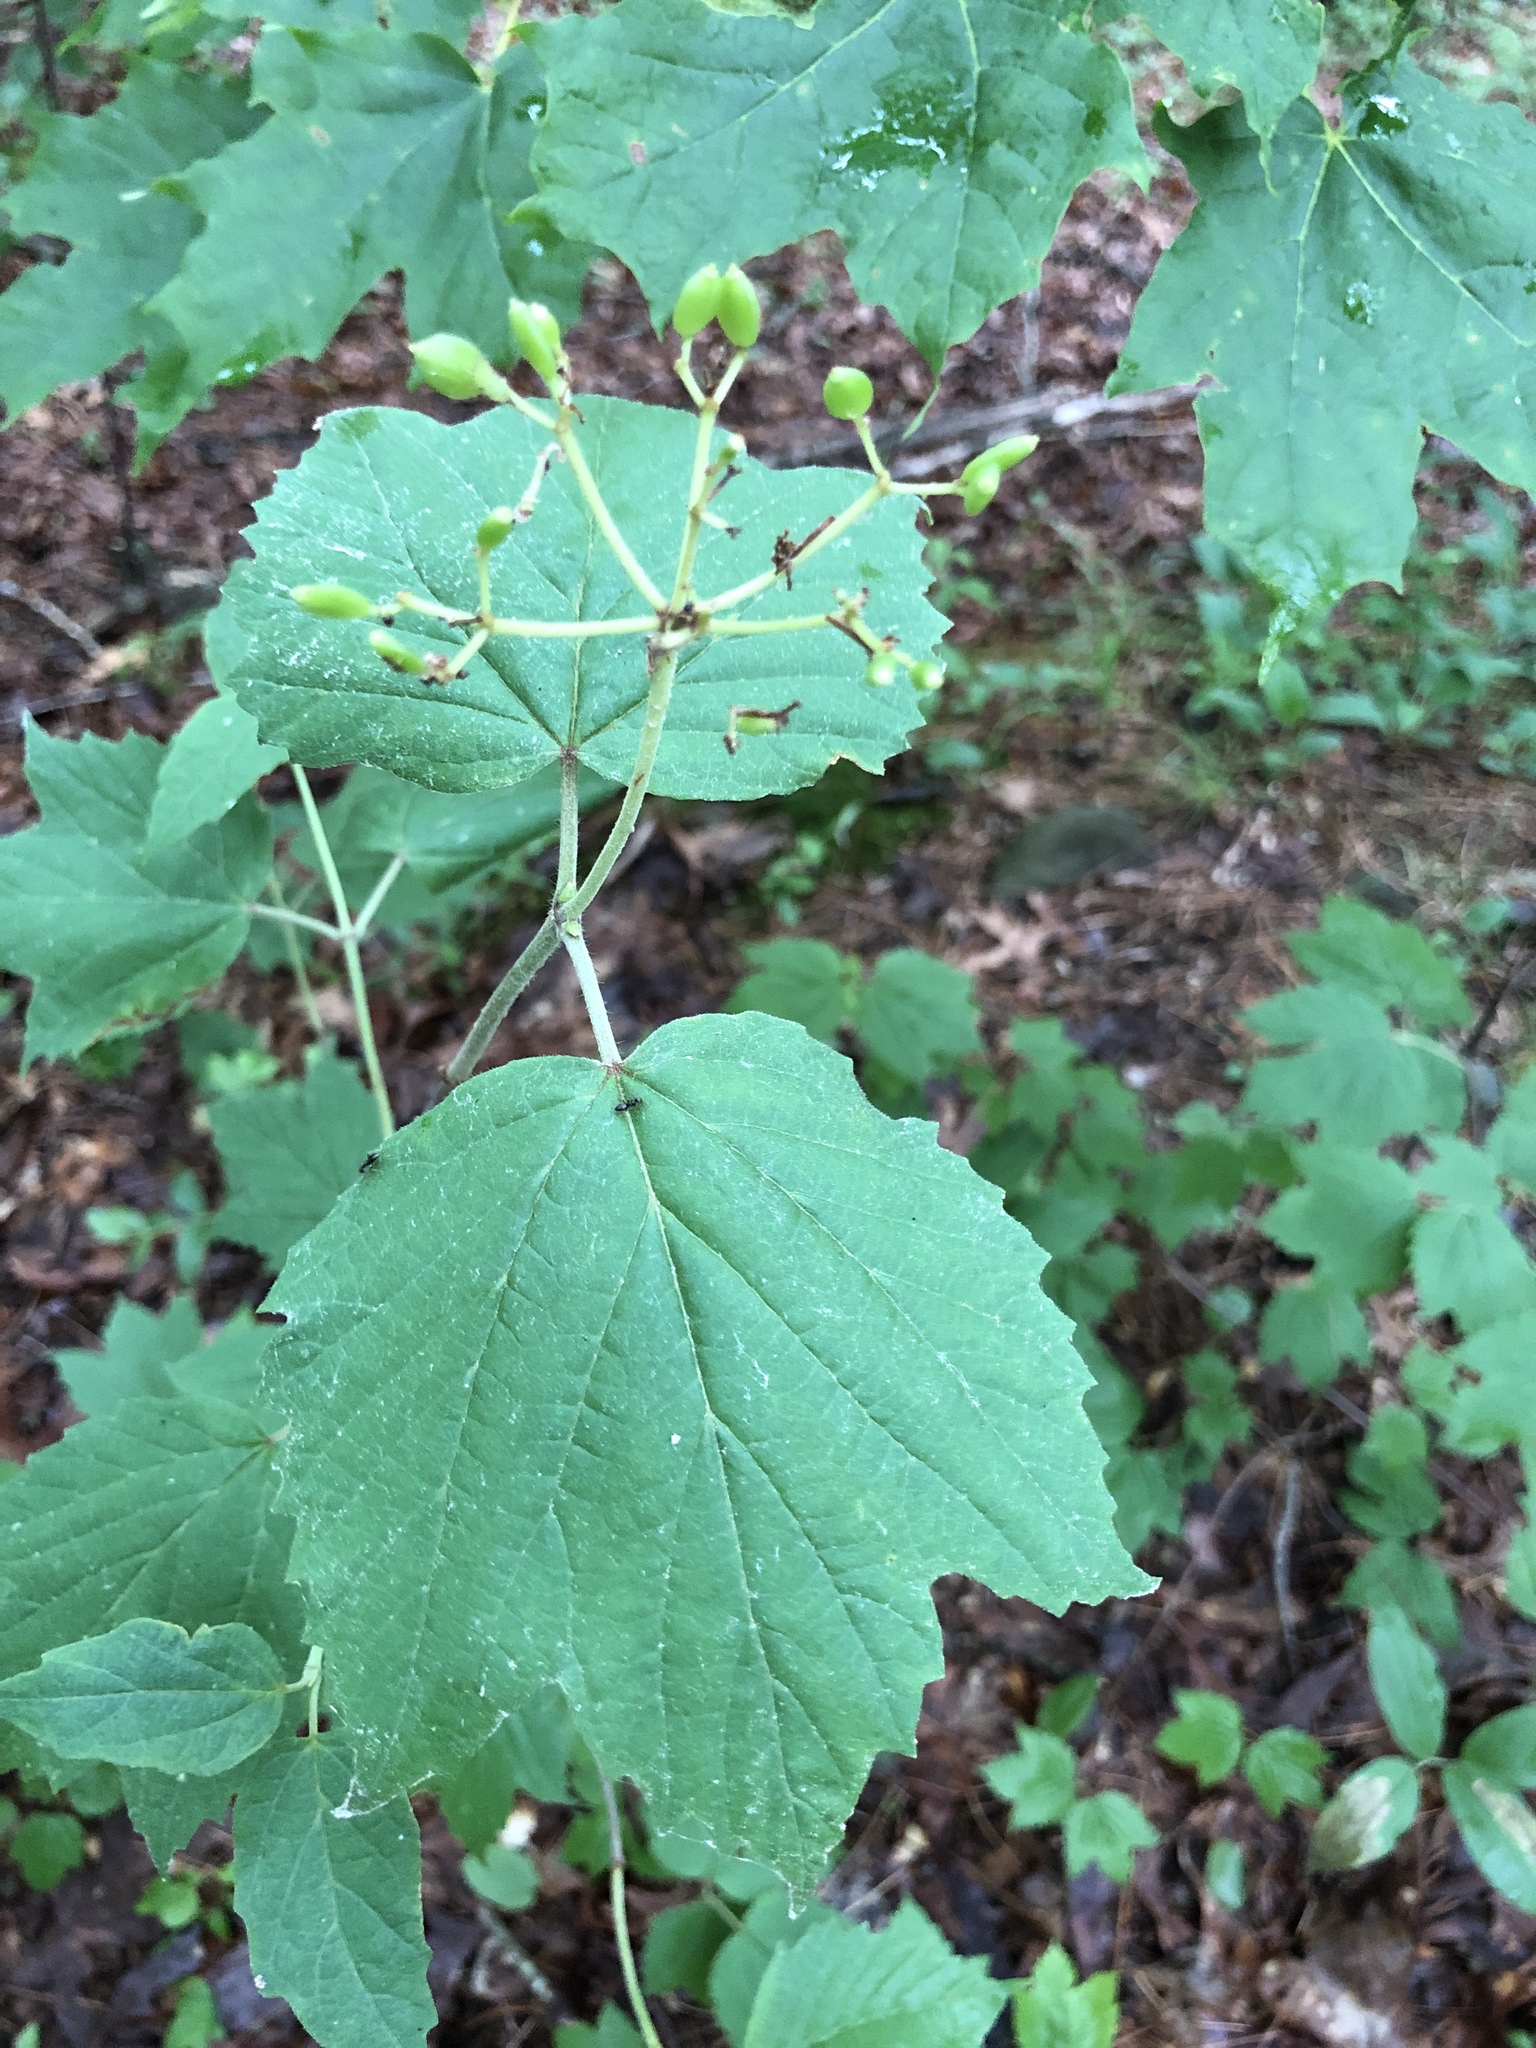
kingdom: Plantae
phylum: Tracheophyta
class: Magnoliopsida
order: Dipsacales
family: Viburnaceae
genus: Viburnum
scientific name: Viburnum acerifolium
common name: Dockmackie
